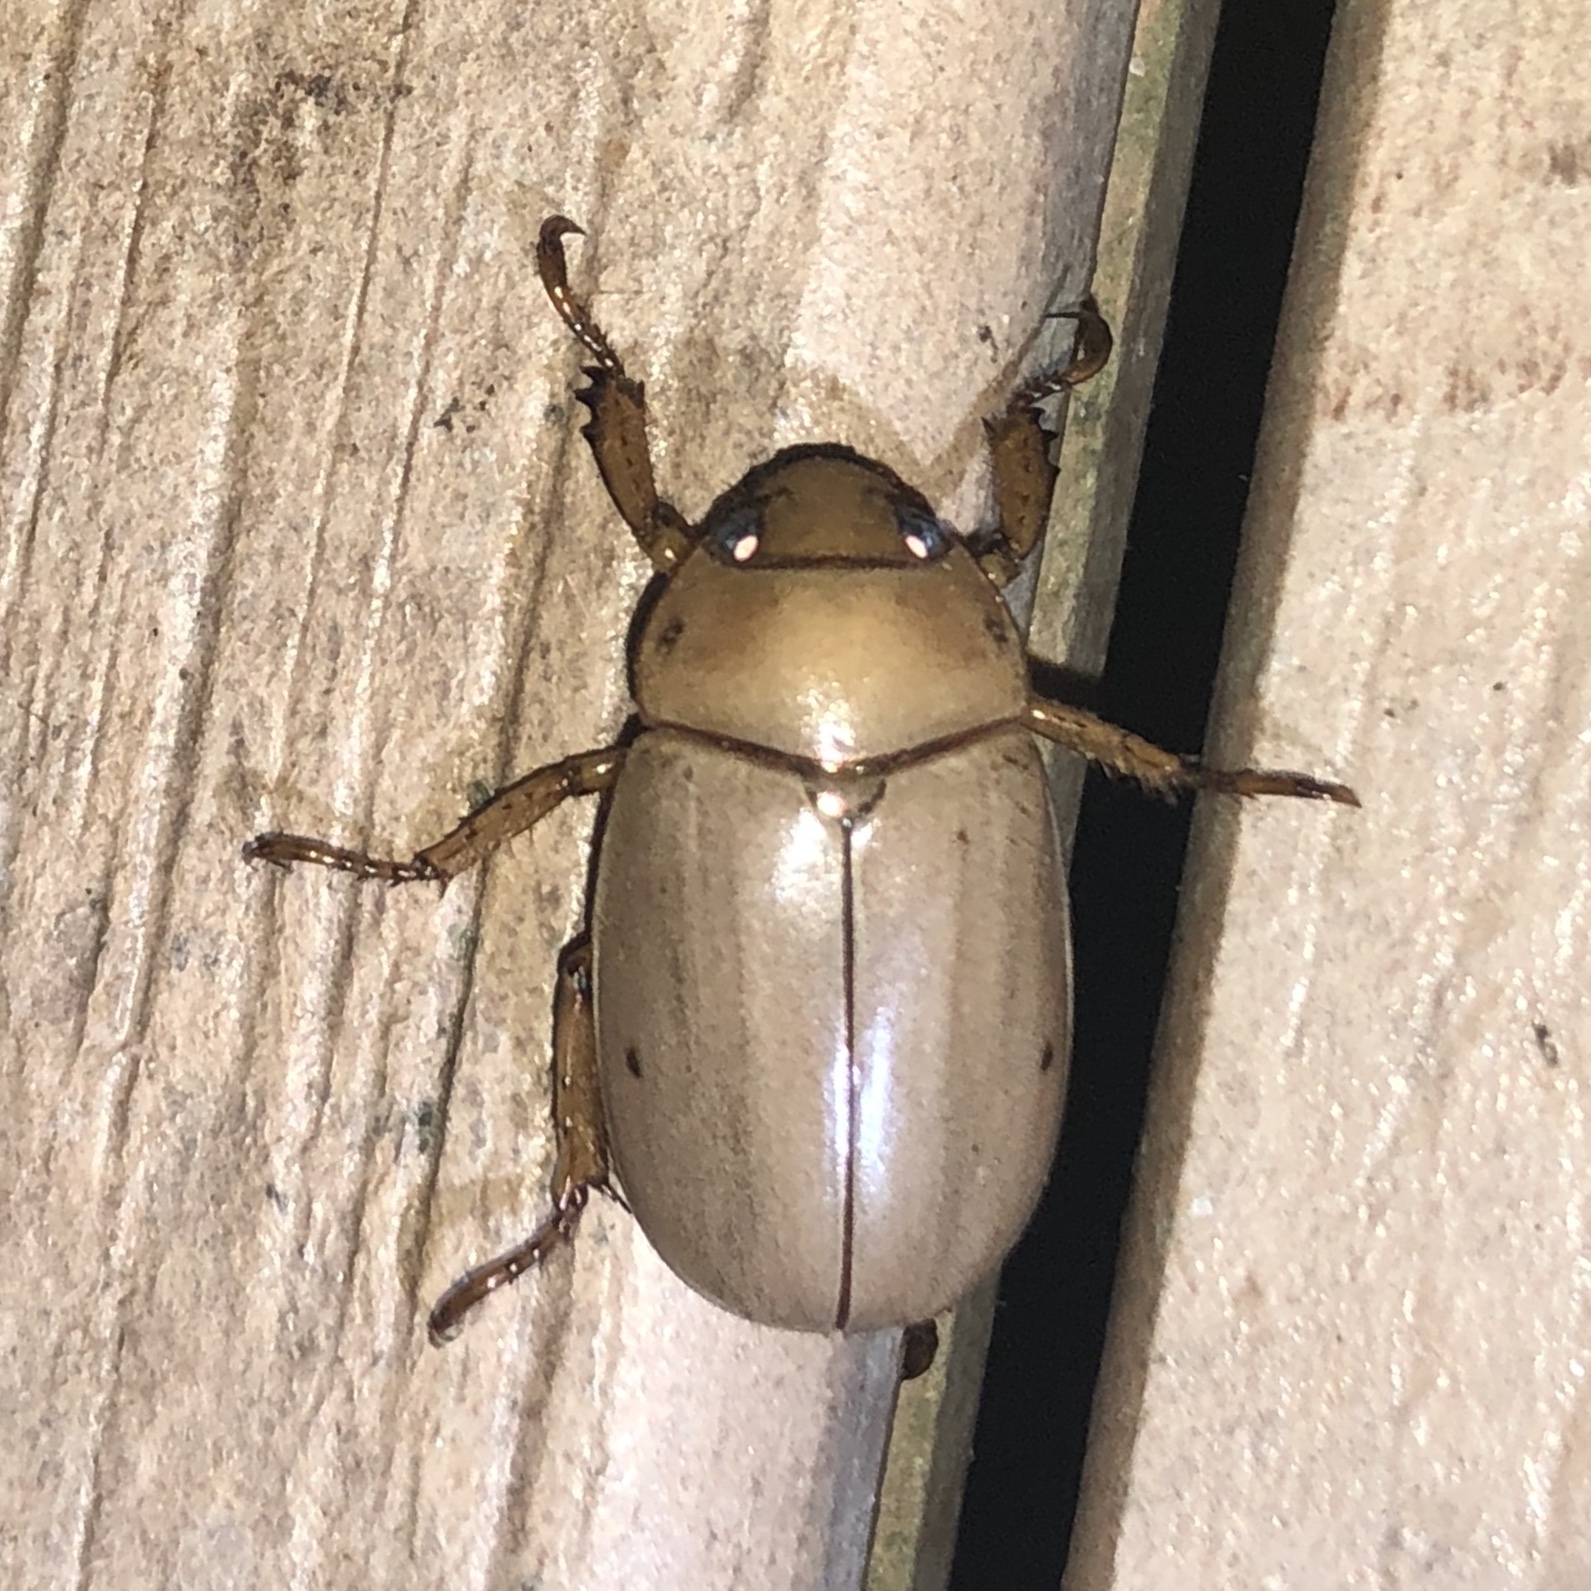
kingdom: Animalia
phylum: Arthropoda
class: Insecta
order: Coleoptera
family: Scarabaeidae
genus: Pelidnota
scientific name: Pelidnota notata
